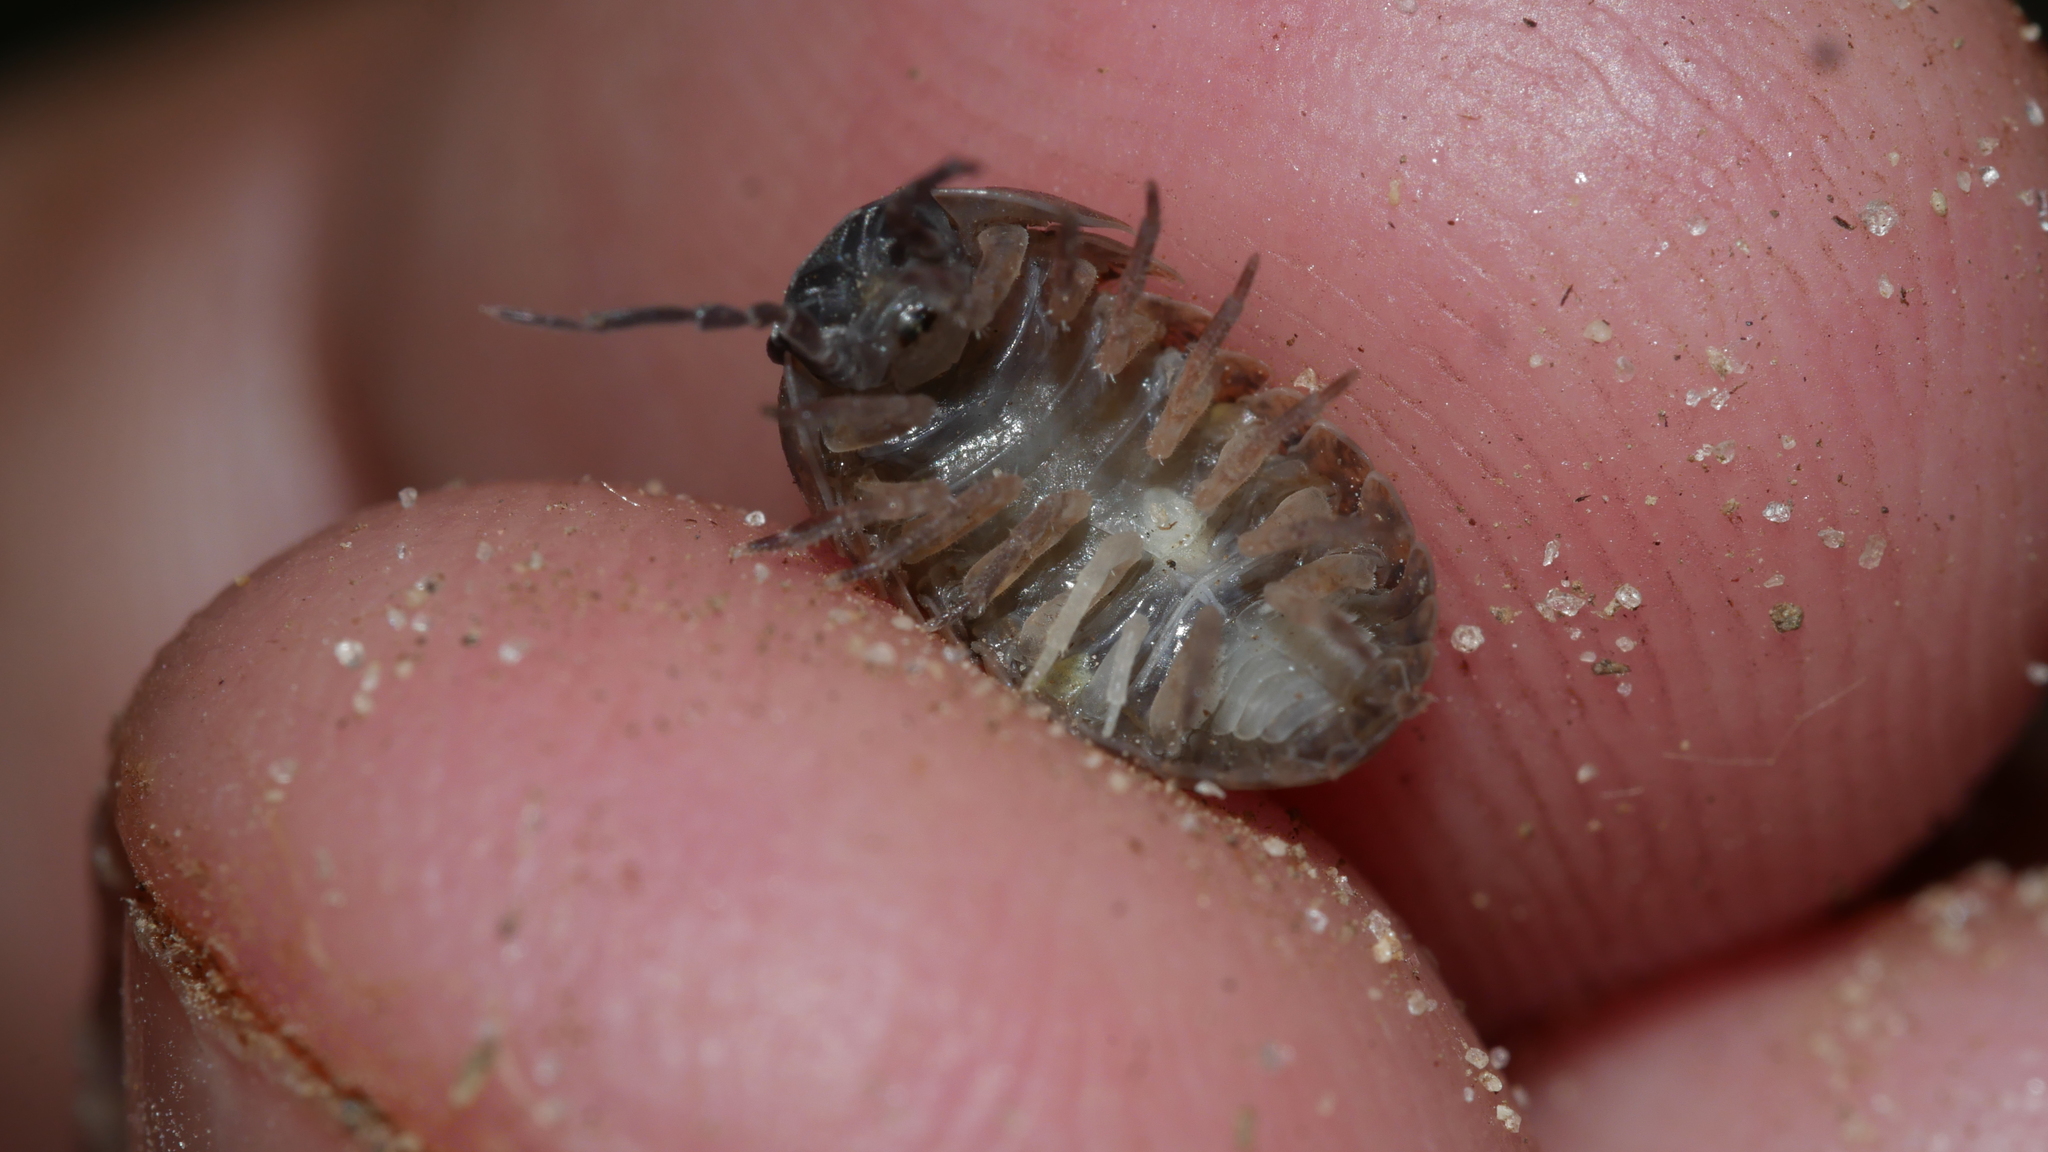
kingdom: Animalia
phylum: Arthropoda
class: Malacostraca
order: Isopoda
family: Armadillidiidae
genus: Armadillidium
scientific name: Armadillidium vulgare
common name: Common pill woodlouse
